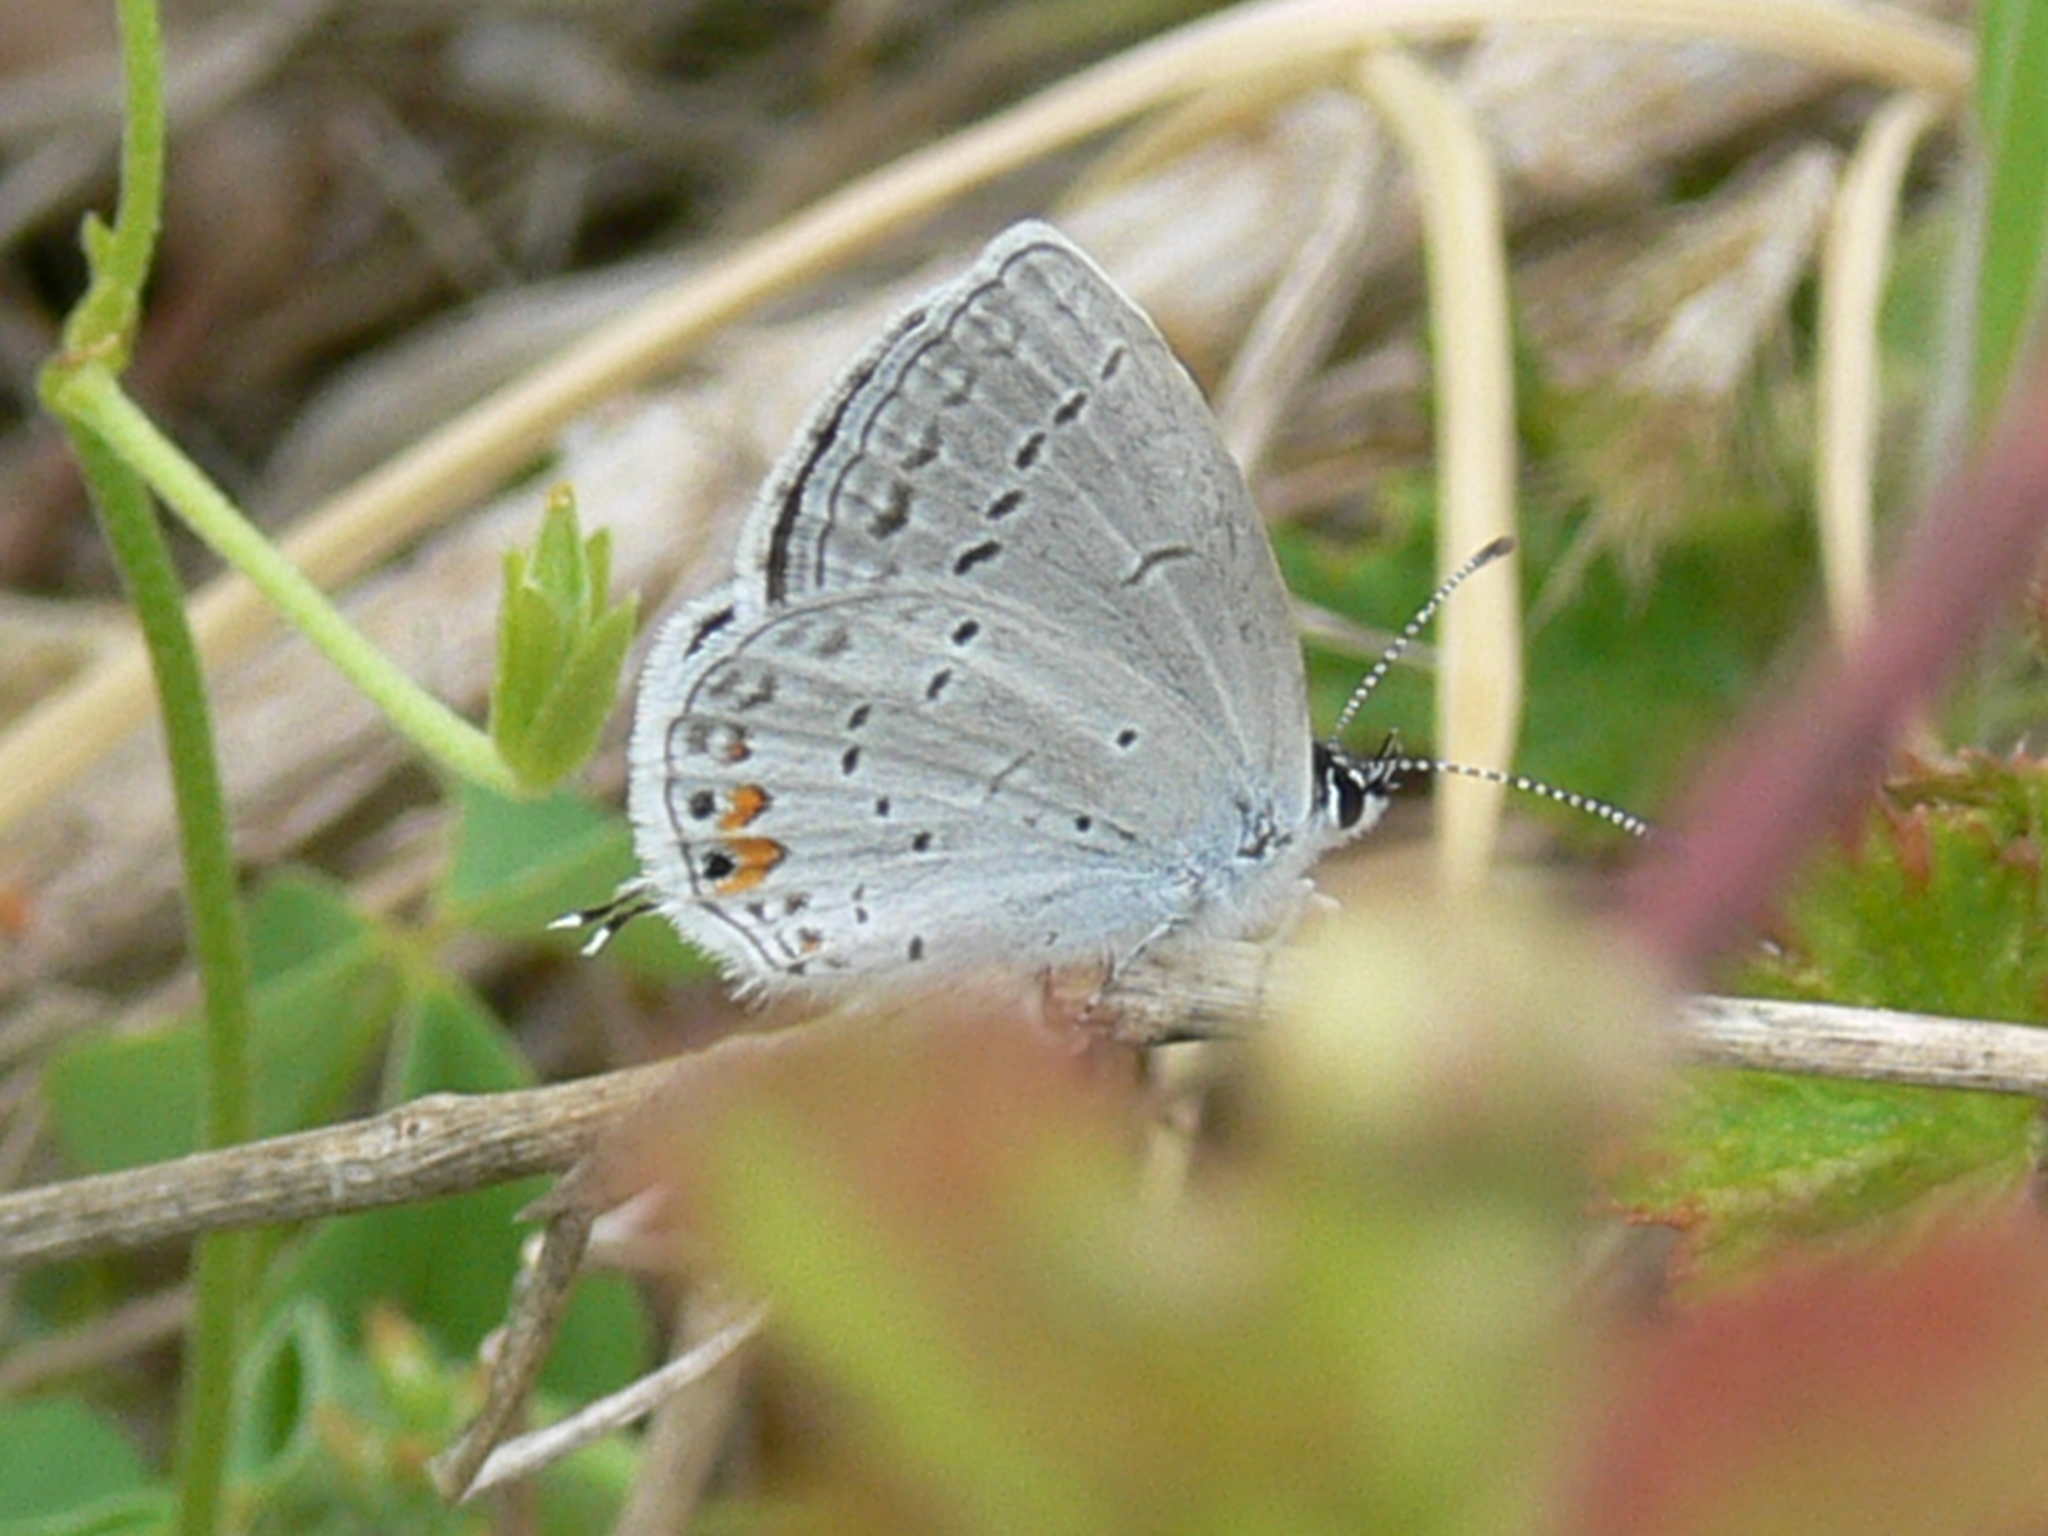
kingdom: Animalia
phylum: Arthropoda
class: Insecta
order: Lepidoptera
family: Lycaenidae
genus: Elkalyce
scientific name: Elkalyce comyntas
